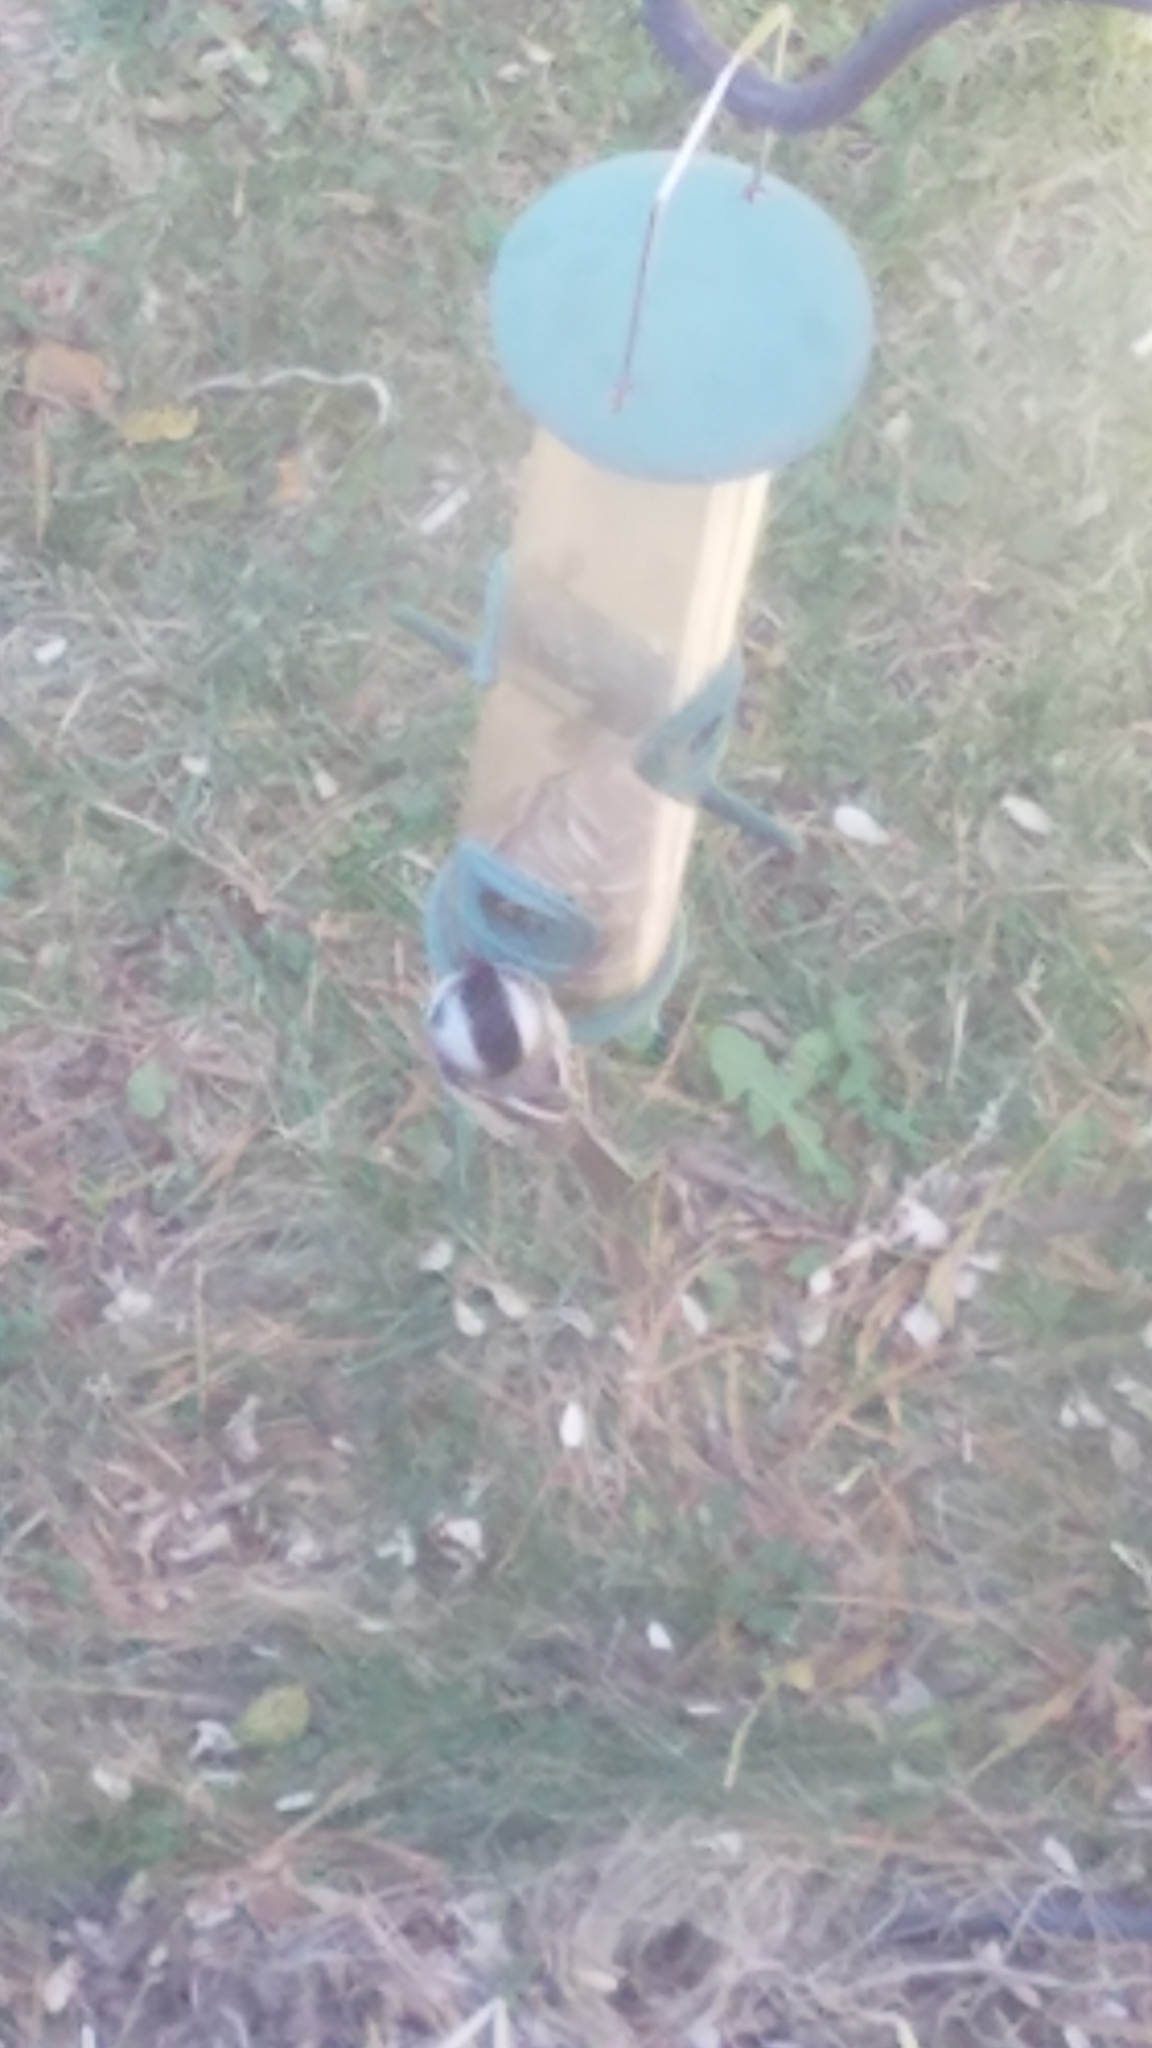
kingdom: Animalia
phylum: Chordata
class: Aves
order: Passeriformes
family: Paridae
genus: Poecile
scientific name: Poecile atricapillus
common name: Black-capped chickadee
